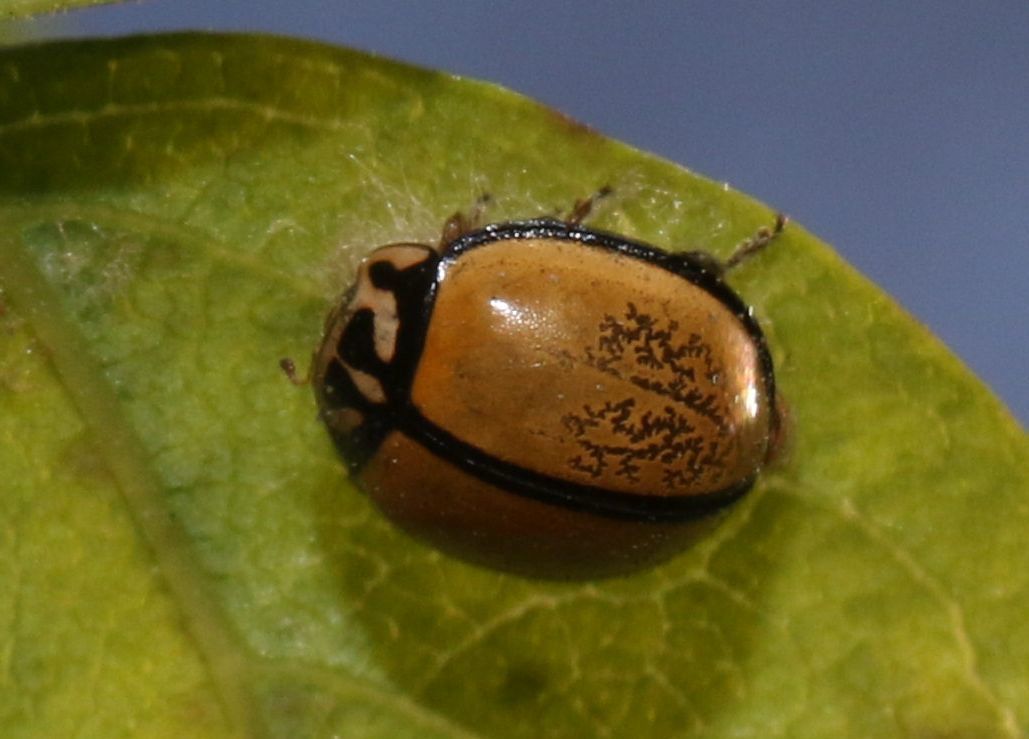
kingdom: Animalia
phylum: Arthropoda
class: Insecta
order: Coleoptera
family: Coccinellidae
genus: Oenopia
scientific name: Oenopia
